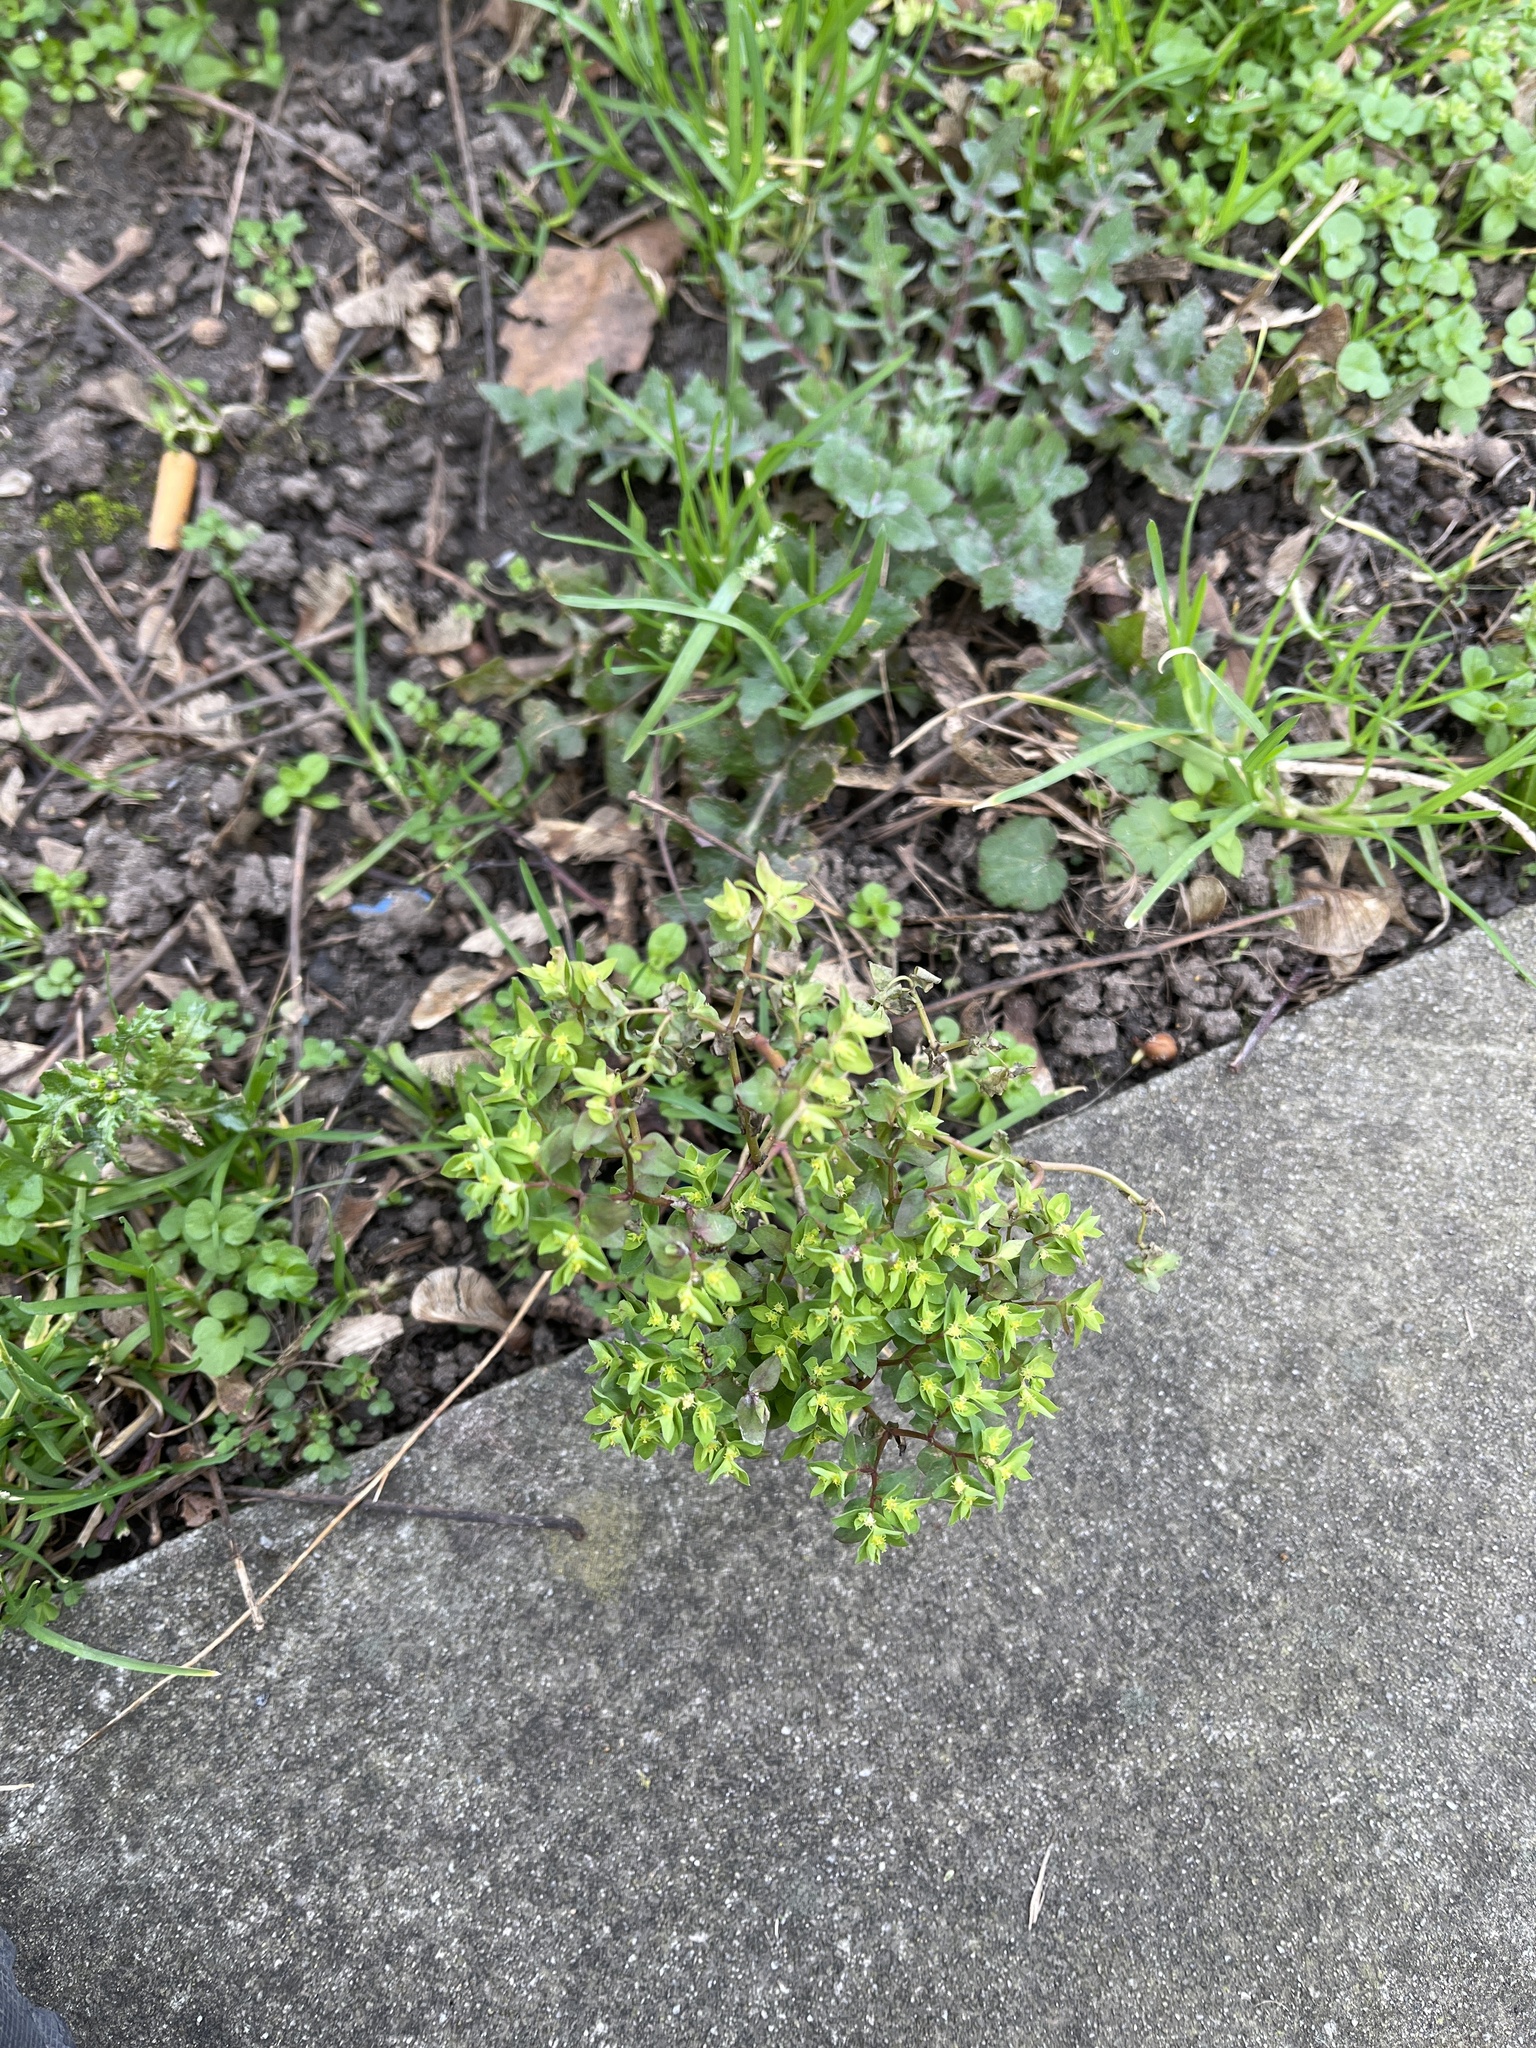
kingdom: Plantae
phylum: Tracheophyta
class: Magnoliopsida
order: Malpighiales
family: Euphorbiaceae
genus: Euphorbia
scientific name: Euphorbia peplus
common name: Petty spurge
